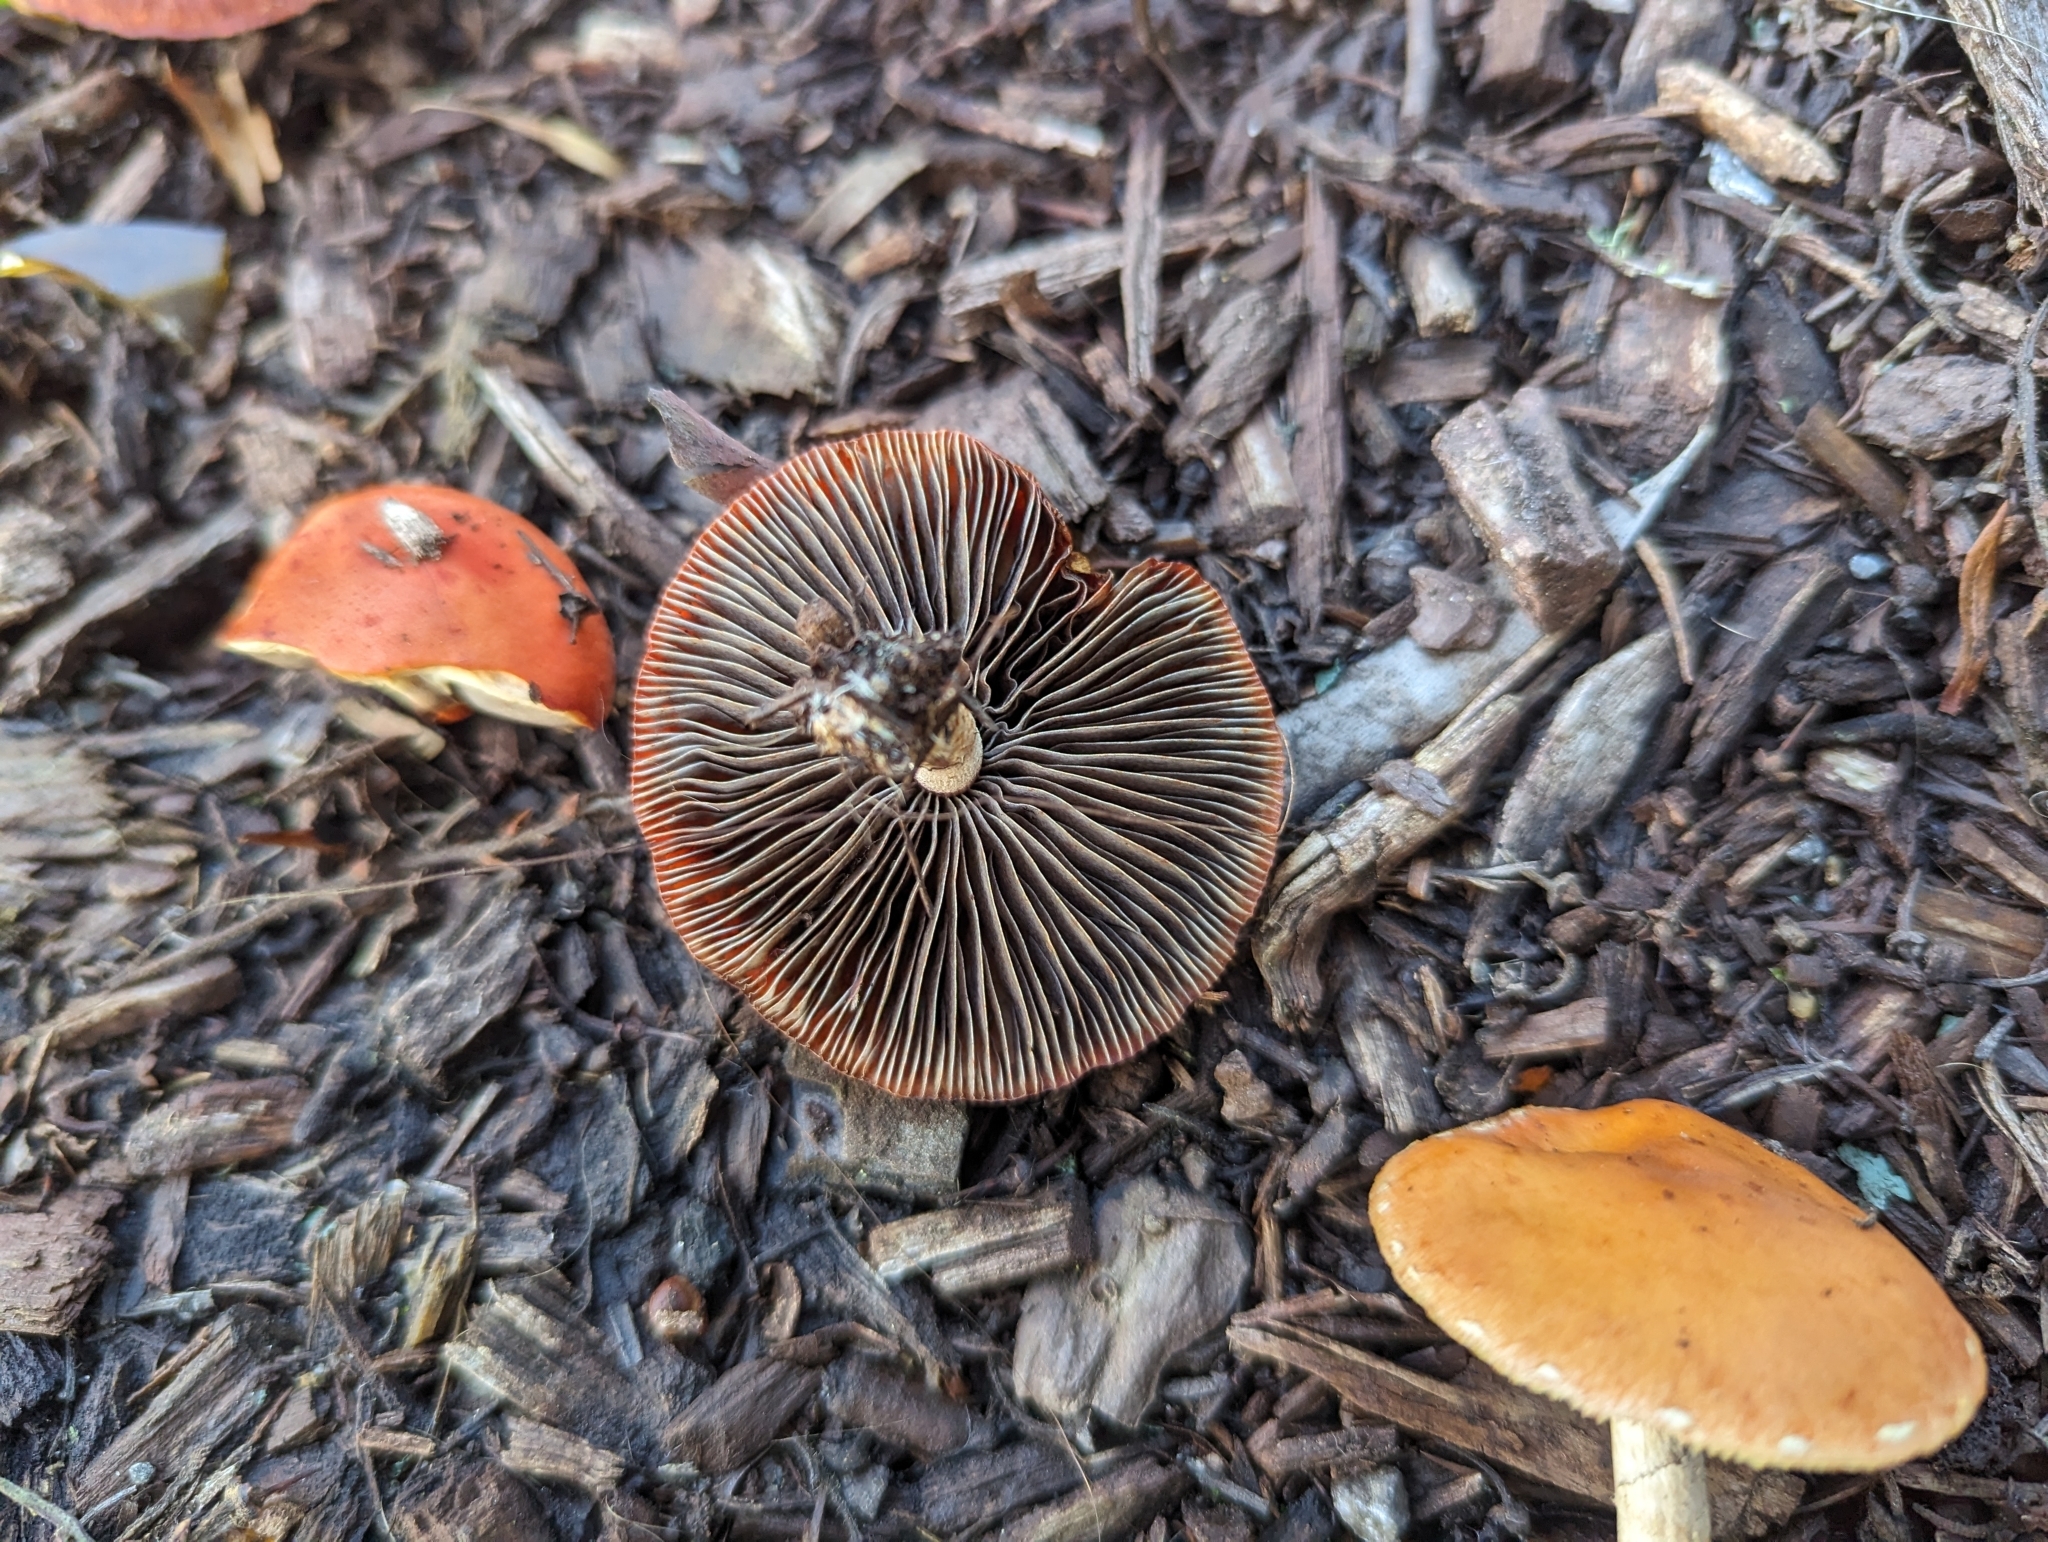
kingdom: Fungi
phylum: Basidiomycota
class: Agaricomycetes
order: Agaricales
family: Strophariaceae
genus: Leratiomyces
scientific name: Leratiomyces ceres
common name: Redlead roundhead
